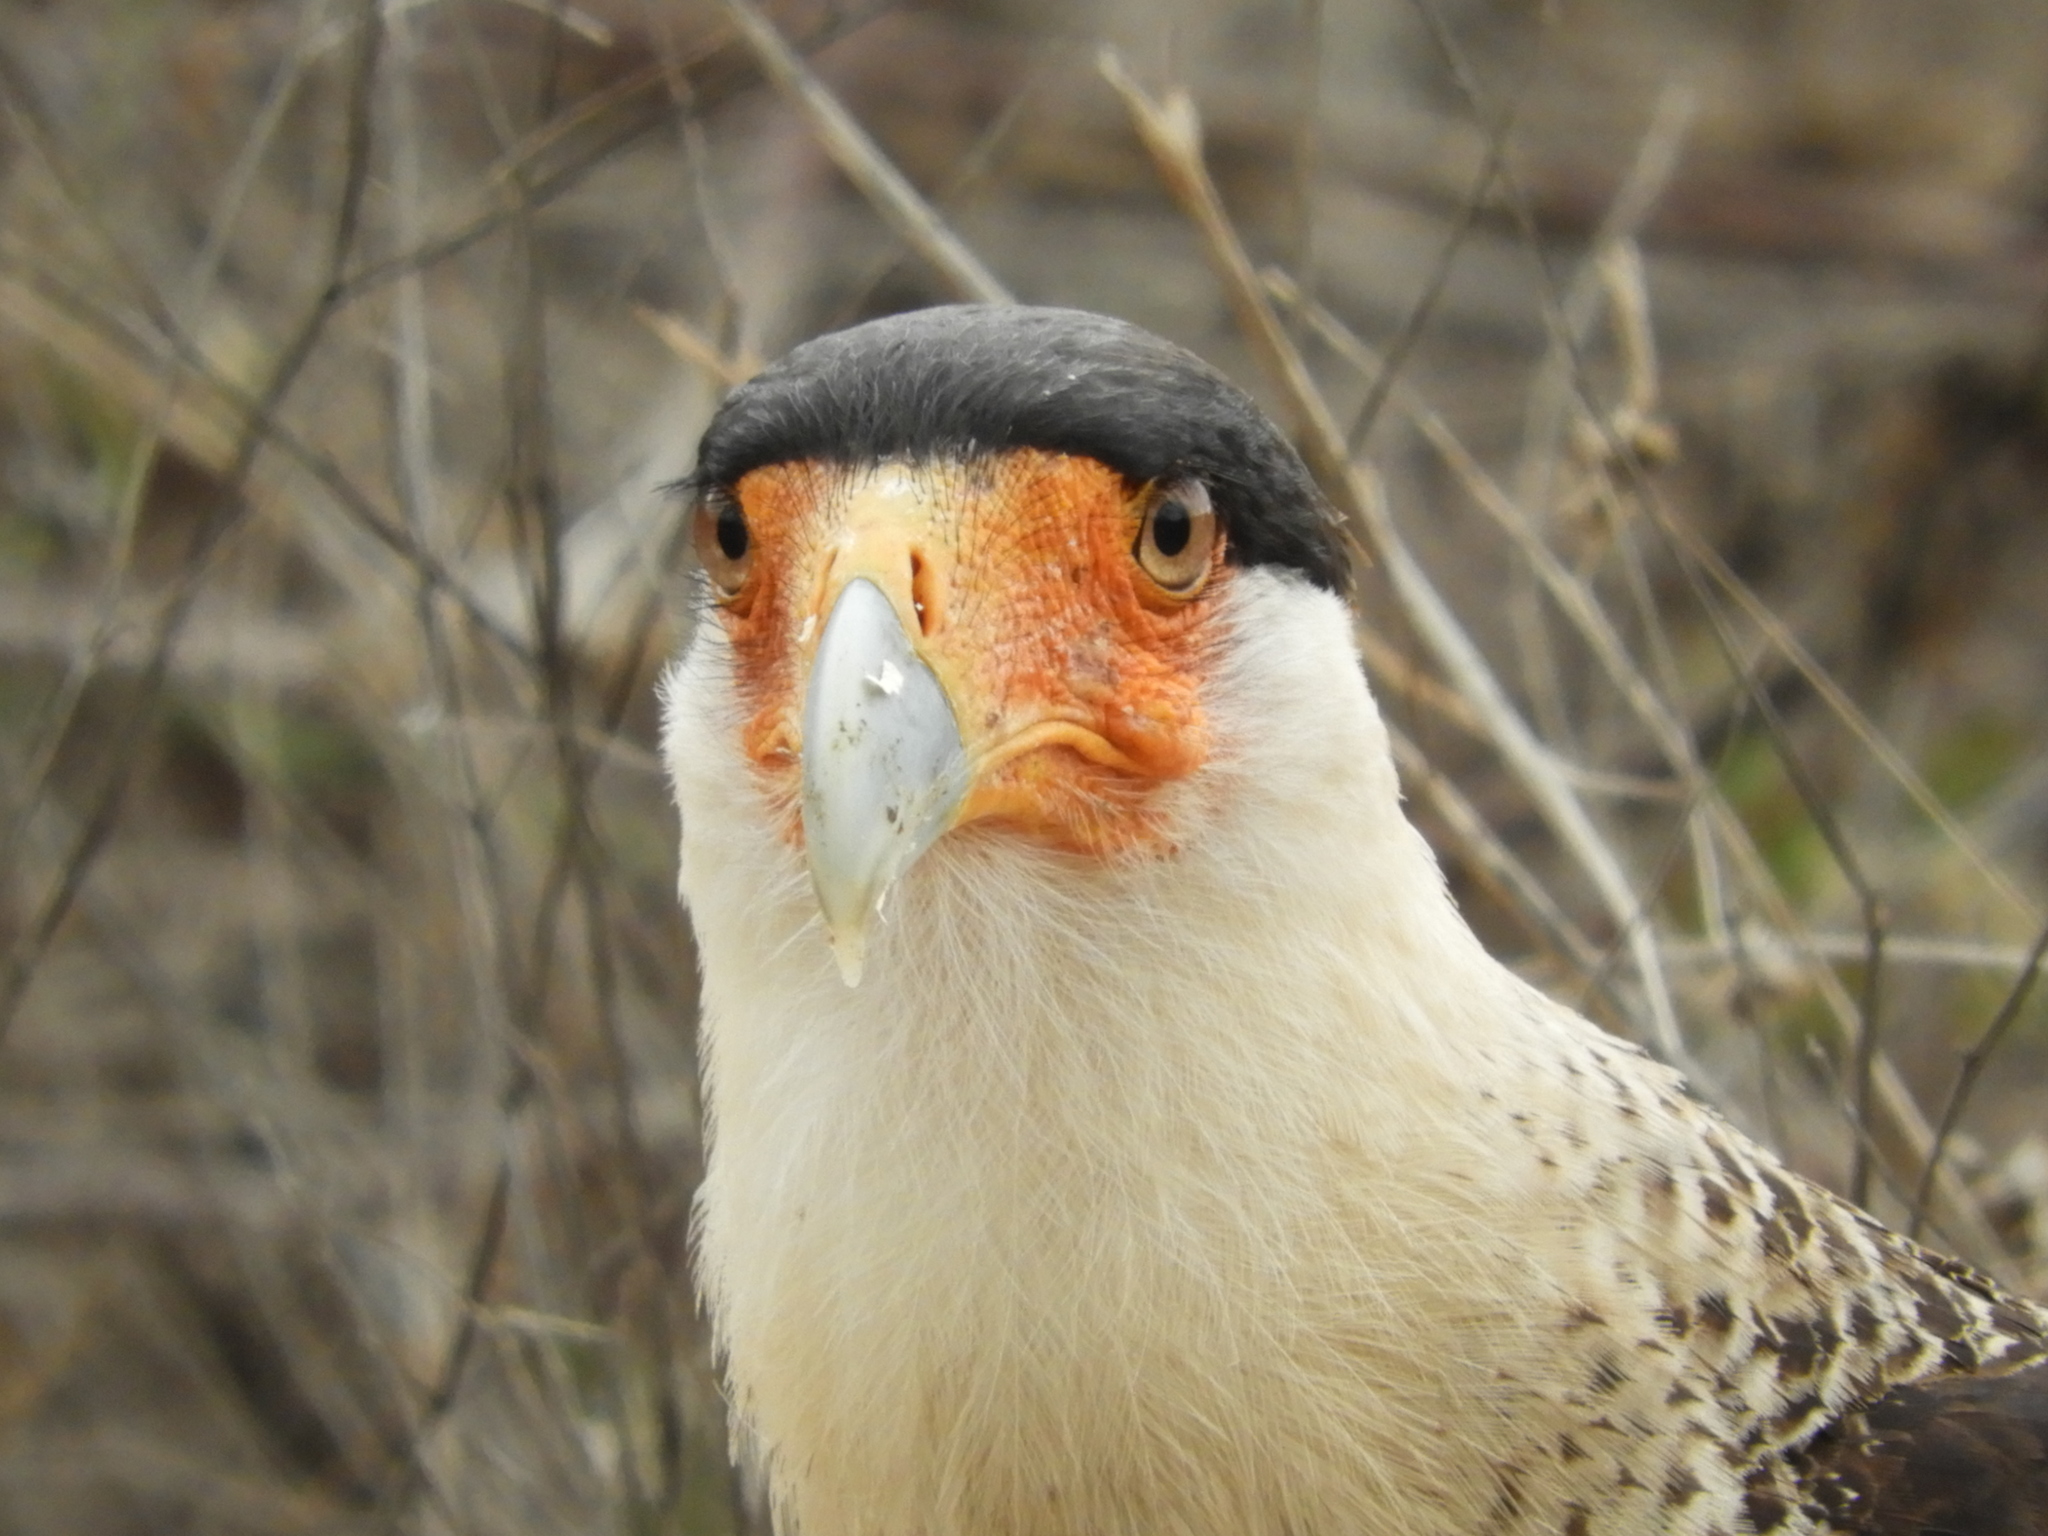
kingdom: Animalia
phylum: Chordata
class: Aves
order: Falconiformes
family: Falconidae
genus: Caracara
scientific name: Caracara plancus
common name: Southern caracara
